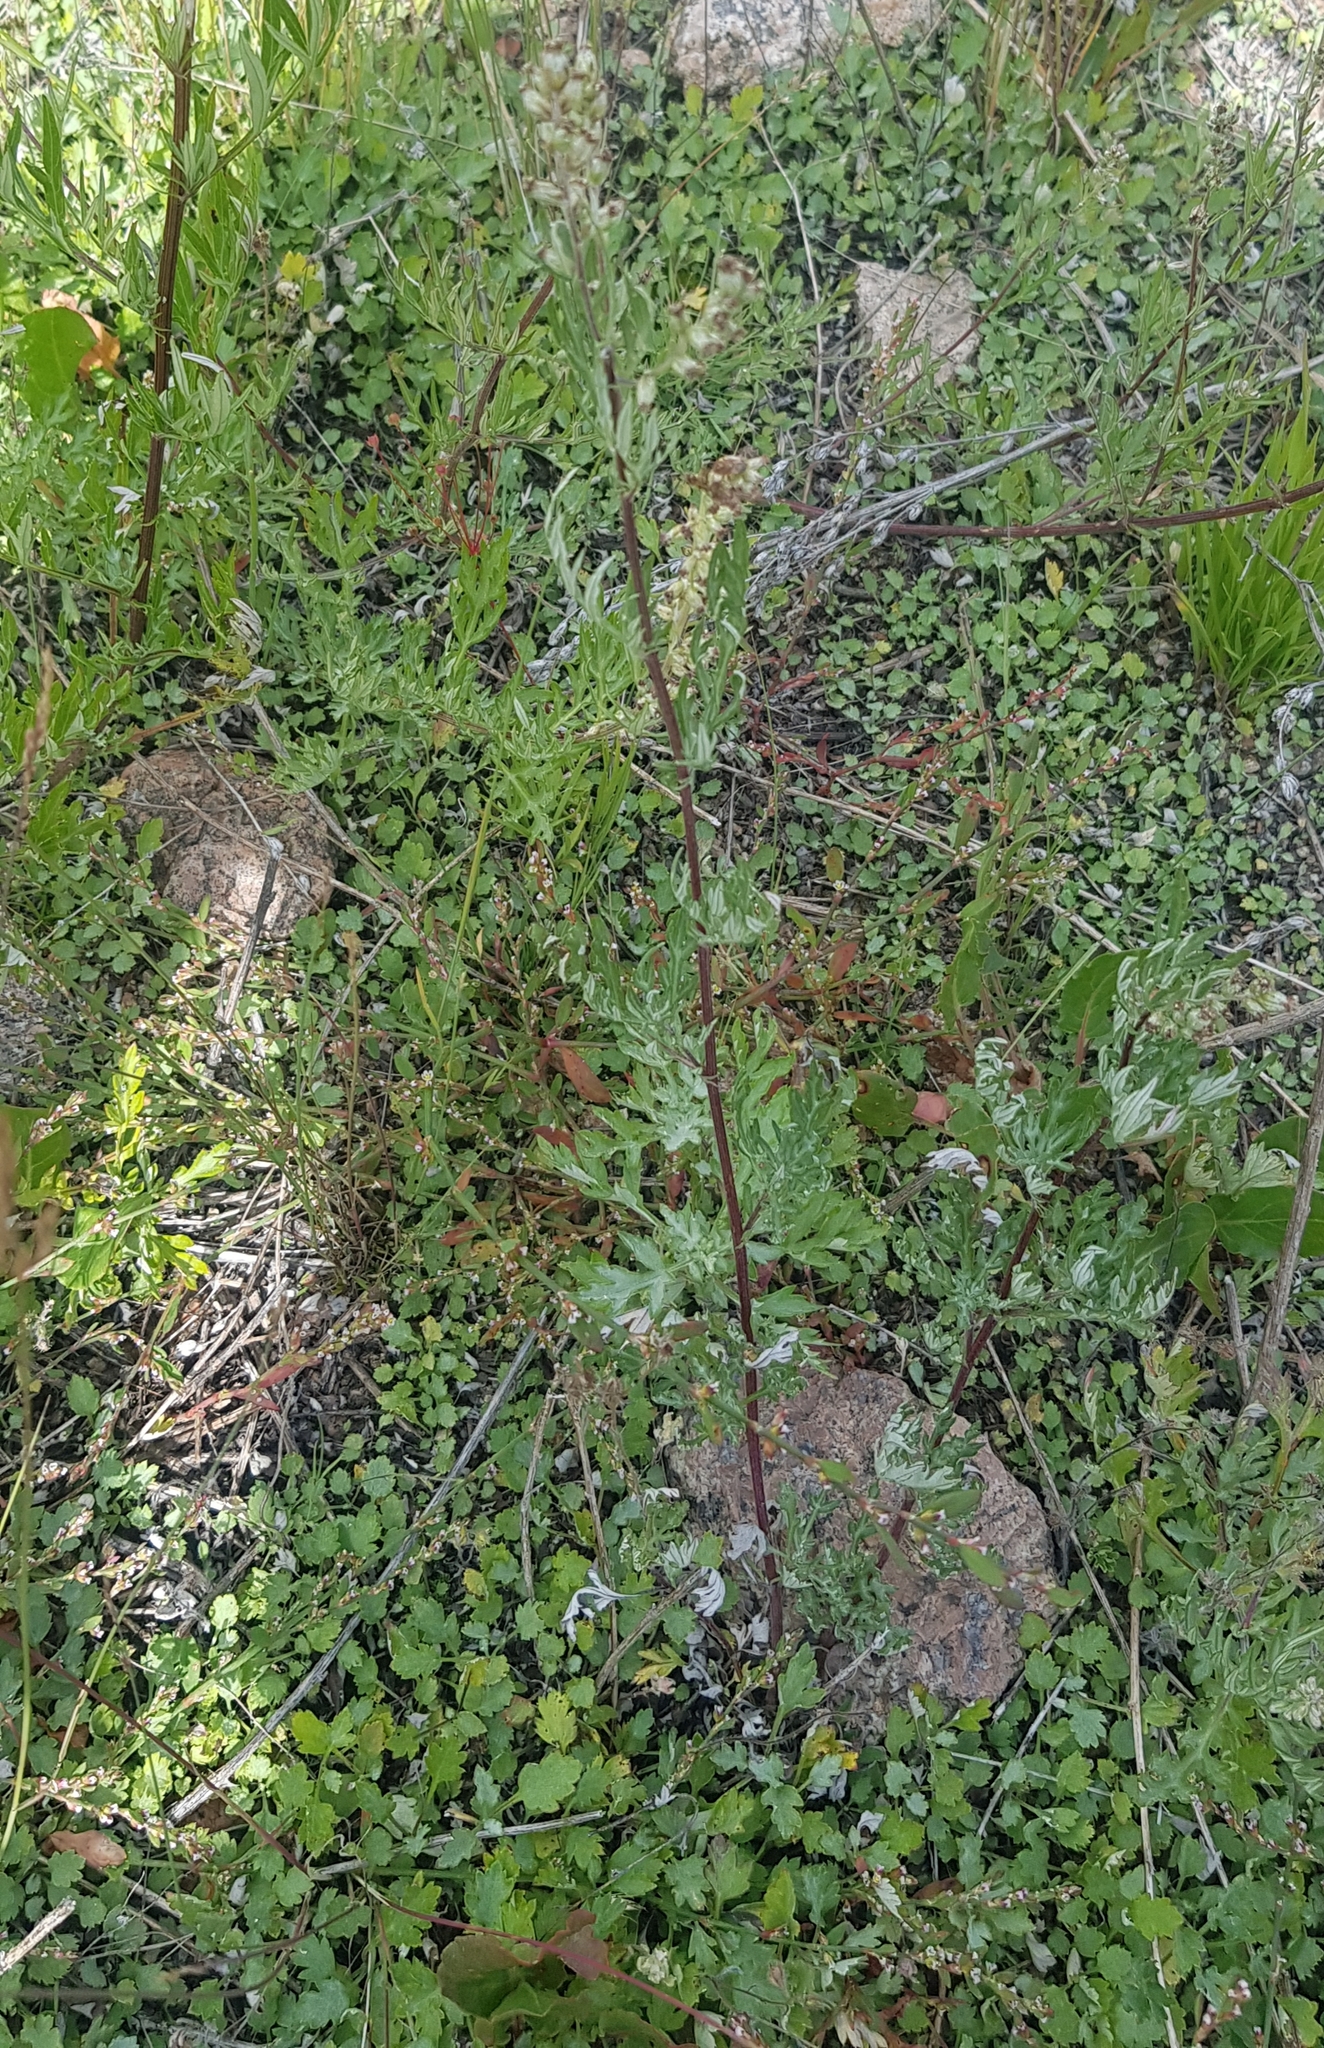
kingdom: Plantae
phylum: Tracheophyta
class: Magnoliopsida
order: Asterales
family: Asteraceae
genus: Artemisia
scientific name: Artemisia vulgaris
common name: Mugwort
